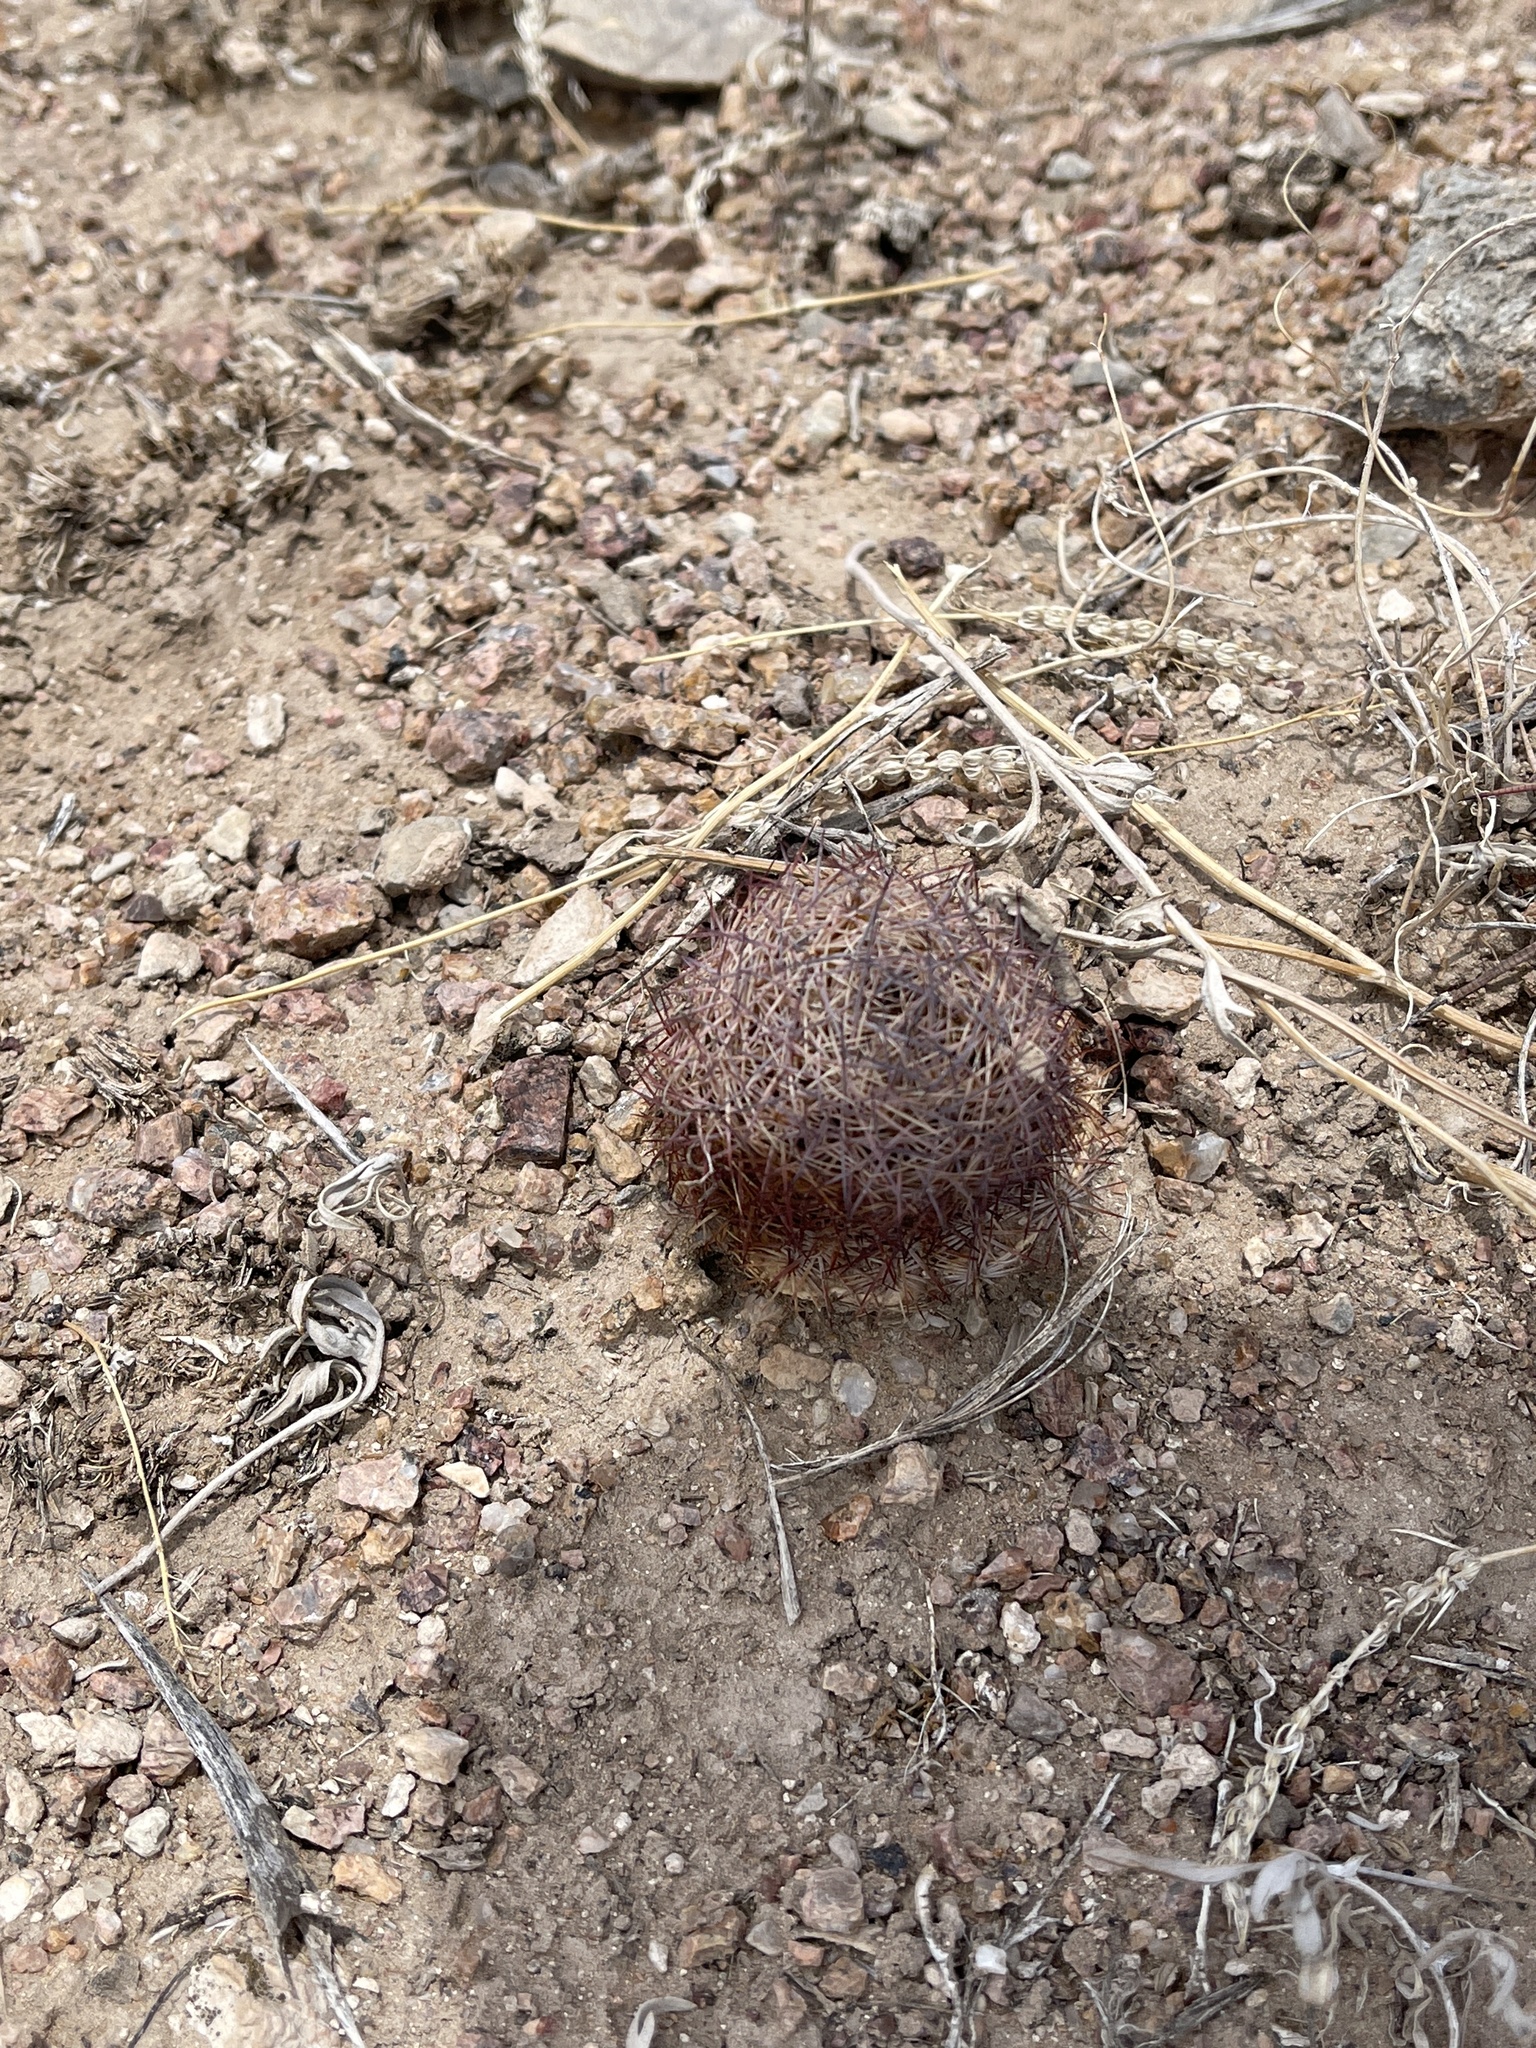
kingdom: Plantae
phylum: Tracheophyta
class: Magnoliopsida
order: Caryophyllales
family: Cactaceae
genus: Sclerocactus
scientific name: Sclerocactus intertextus
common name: White fish-hook cactus
